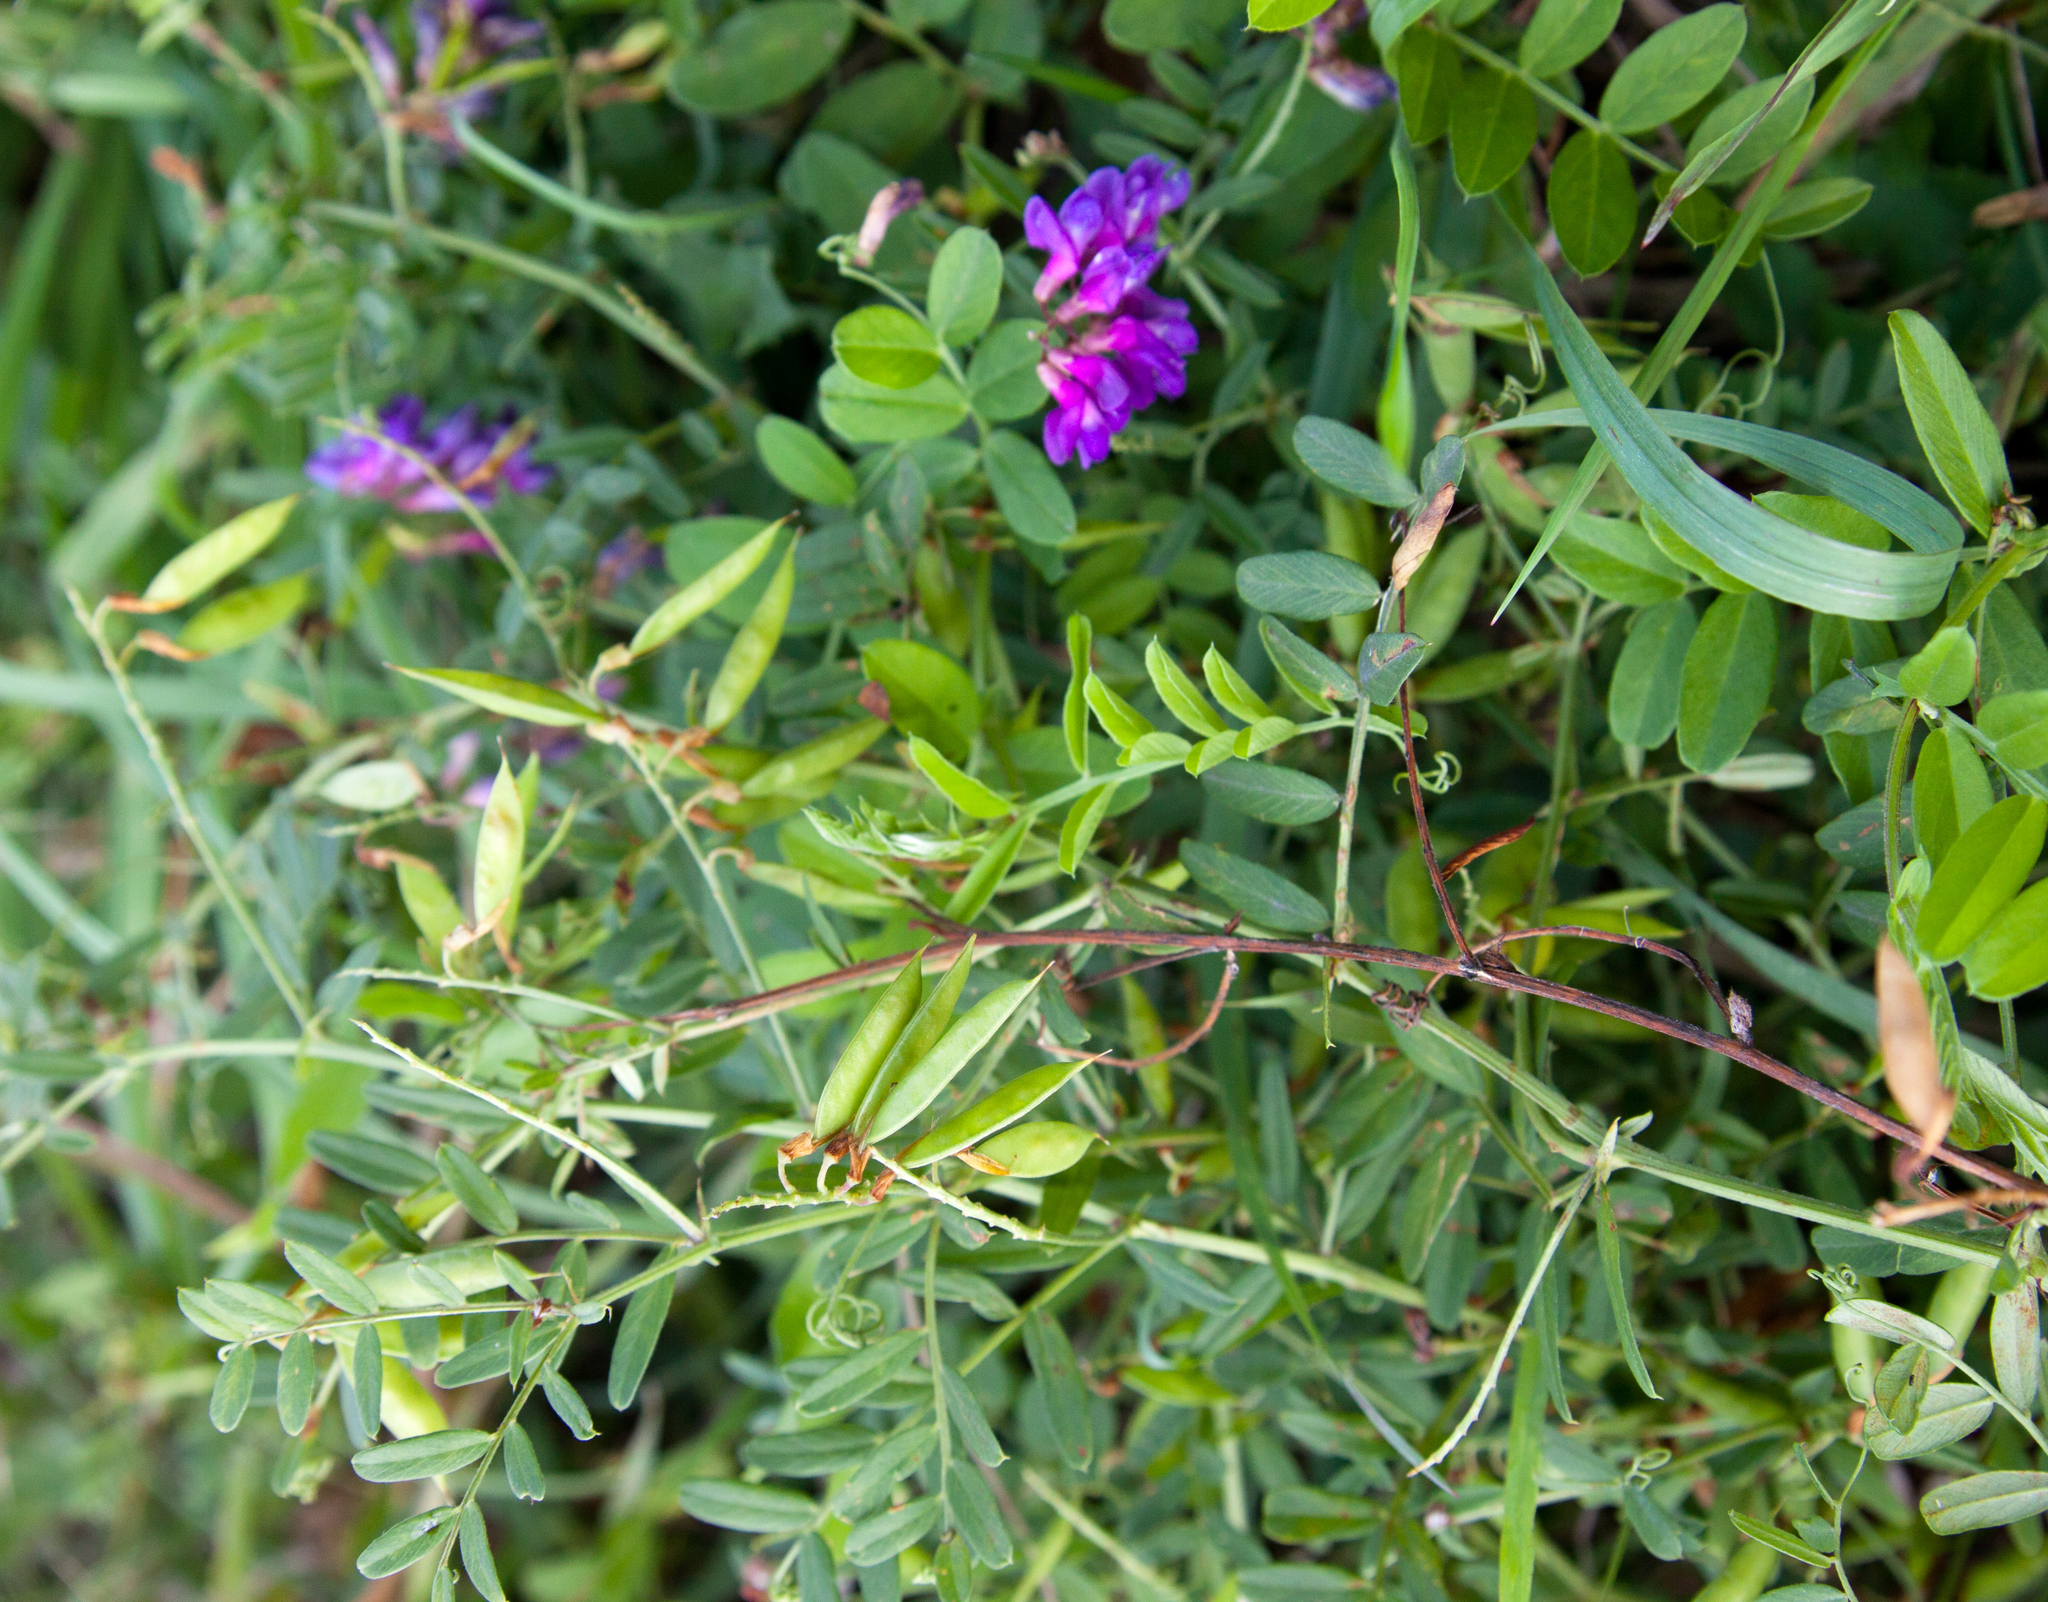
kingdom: Plantae
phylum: Tracheophyta
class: Magnoliopsida
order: Fabales
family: Fabaceae
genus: Vicia
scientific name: Vicia amoena
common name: Cheder ebs
